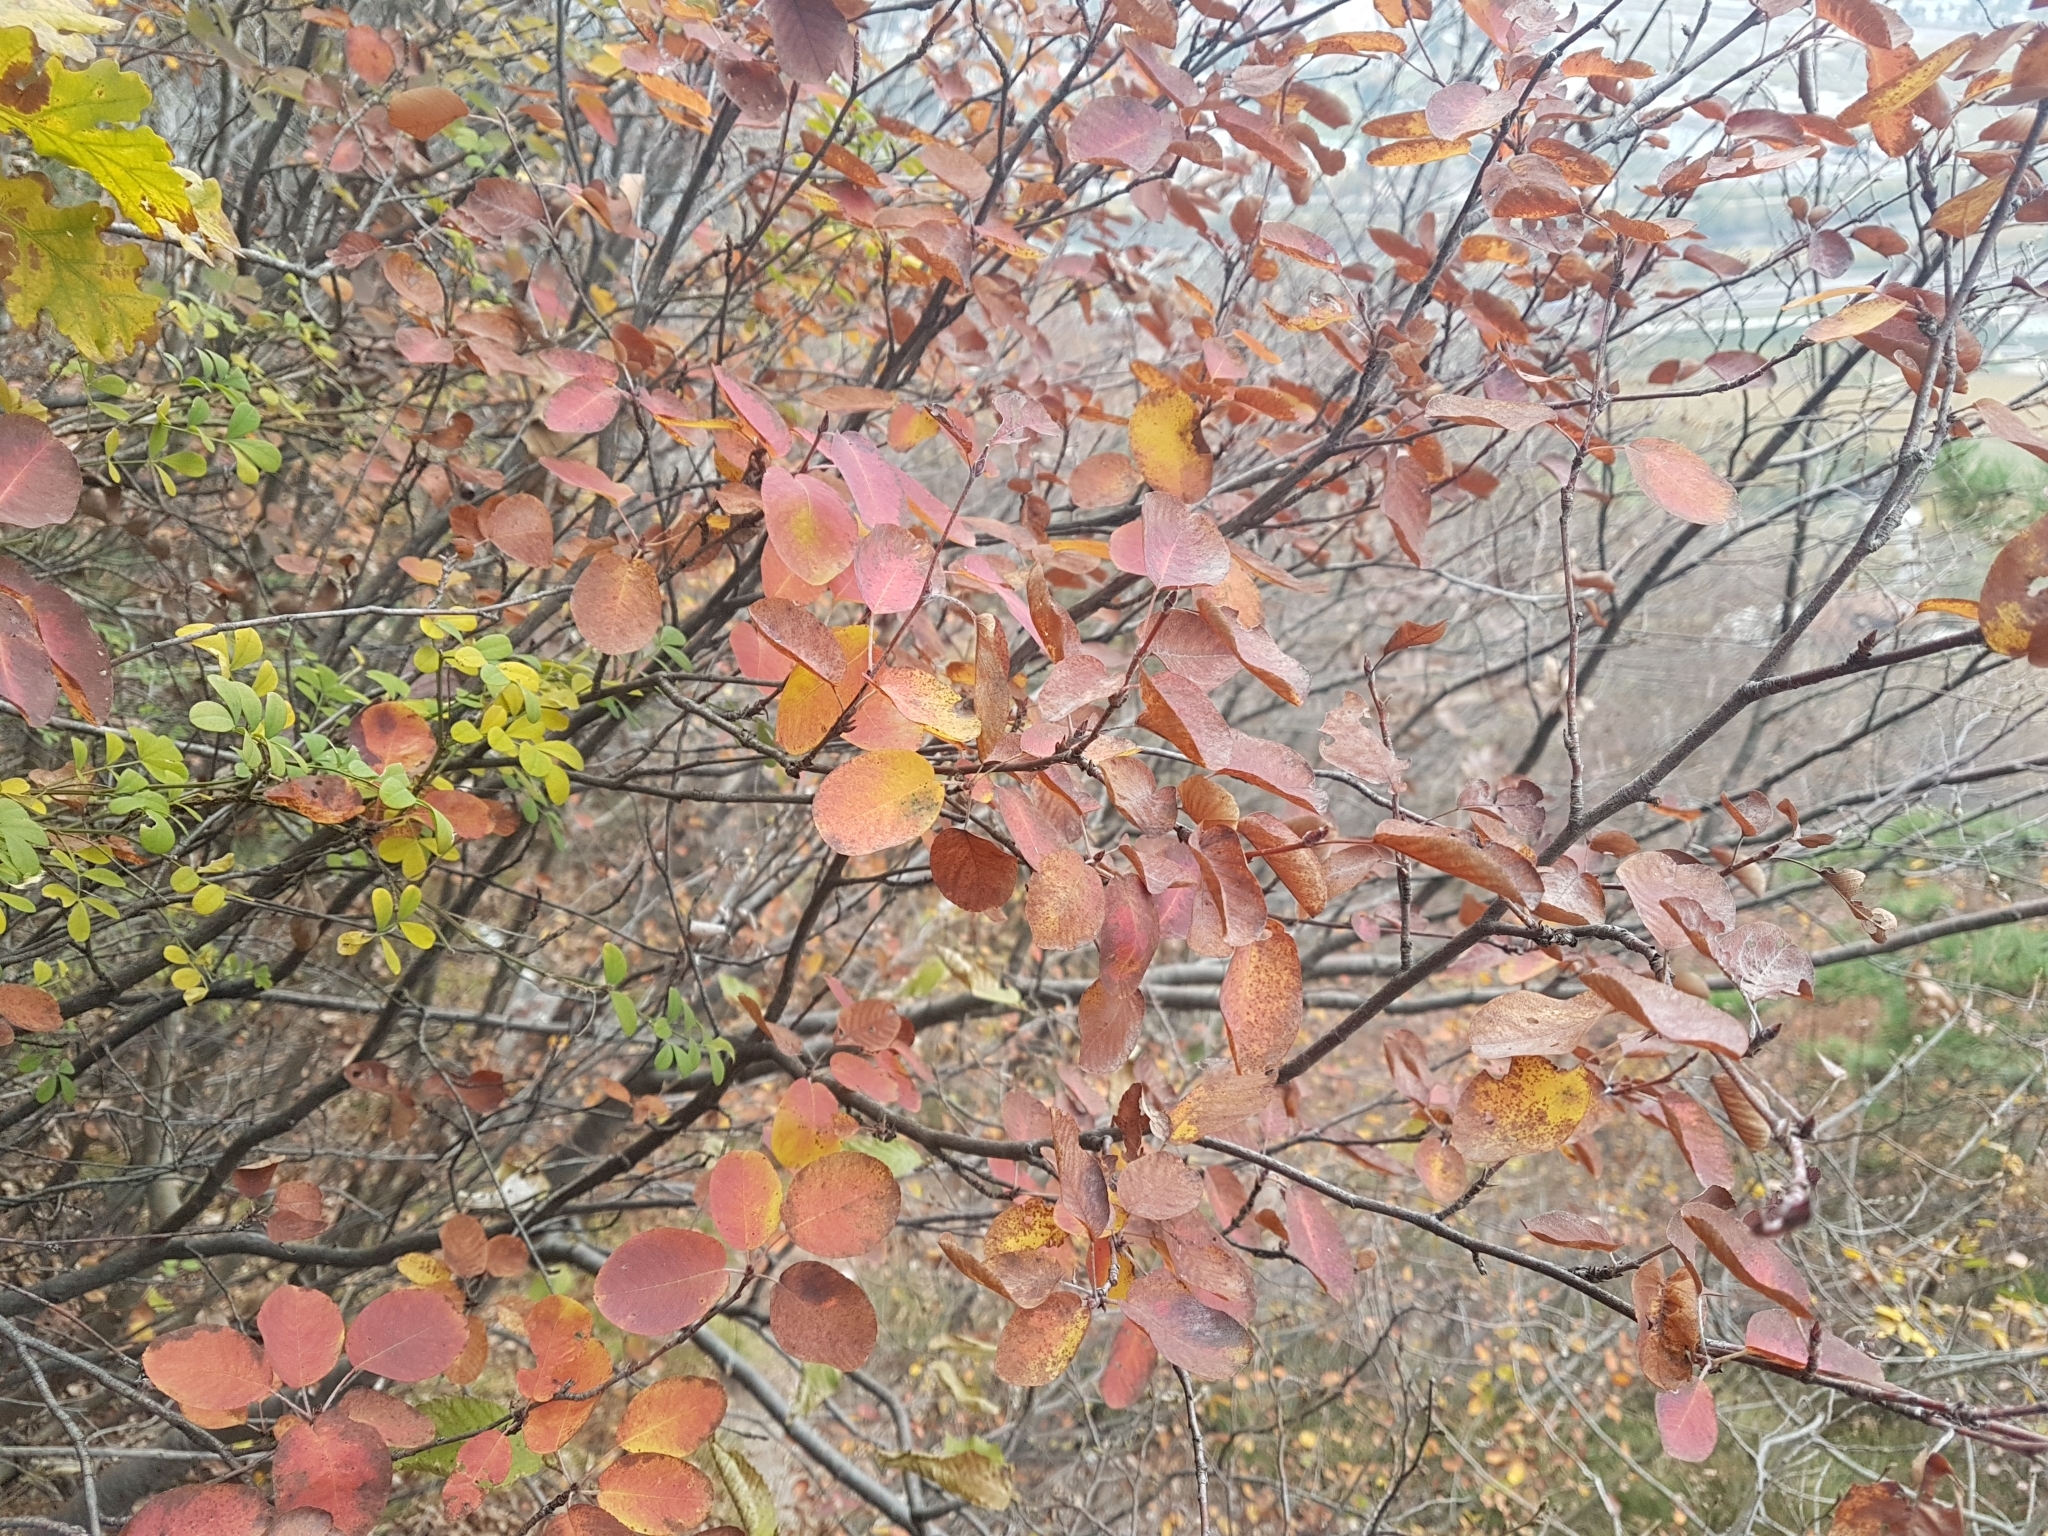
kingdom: Plantae
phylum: Tracheophyta
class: Magnoliopsida
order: Rosales
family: Rosaceae
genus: Amelanchier
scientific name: Amelanchier ovalis
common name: Serviceberry
